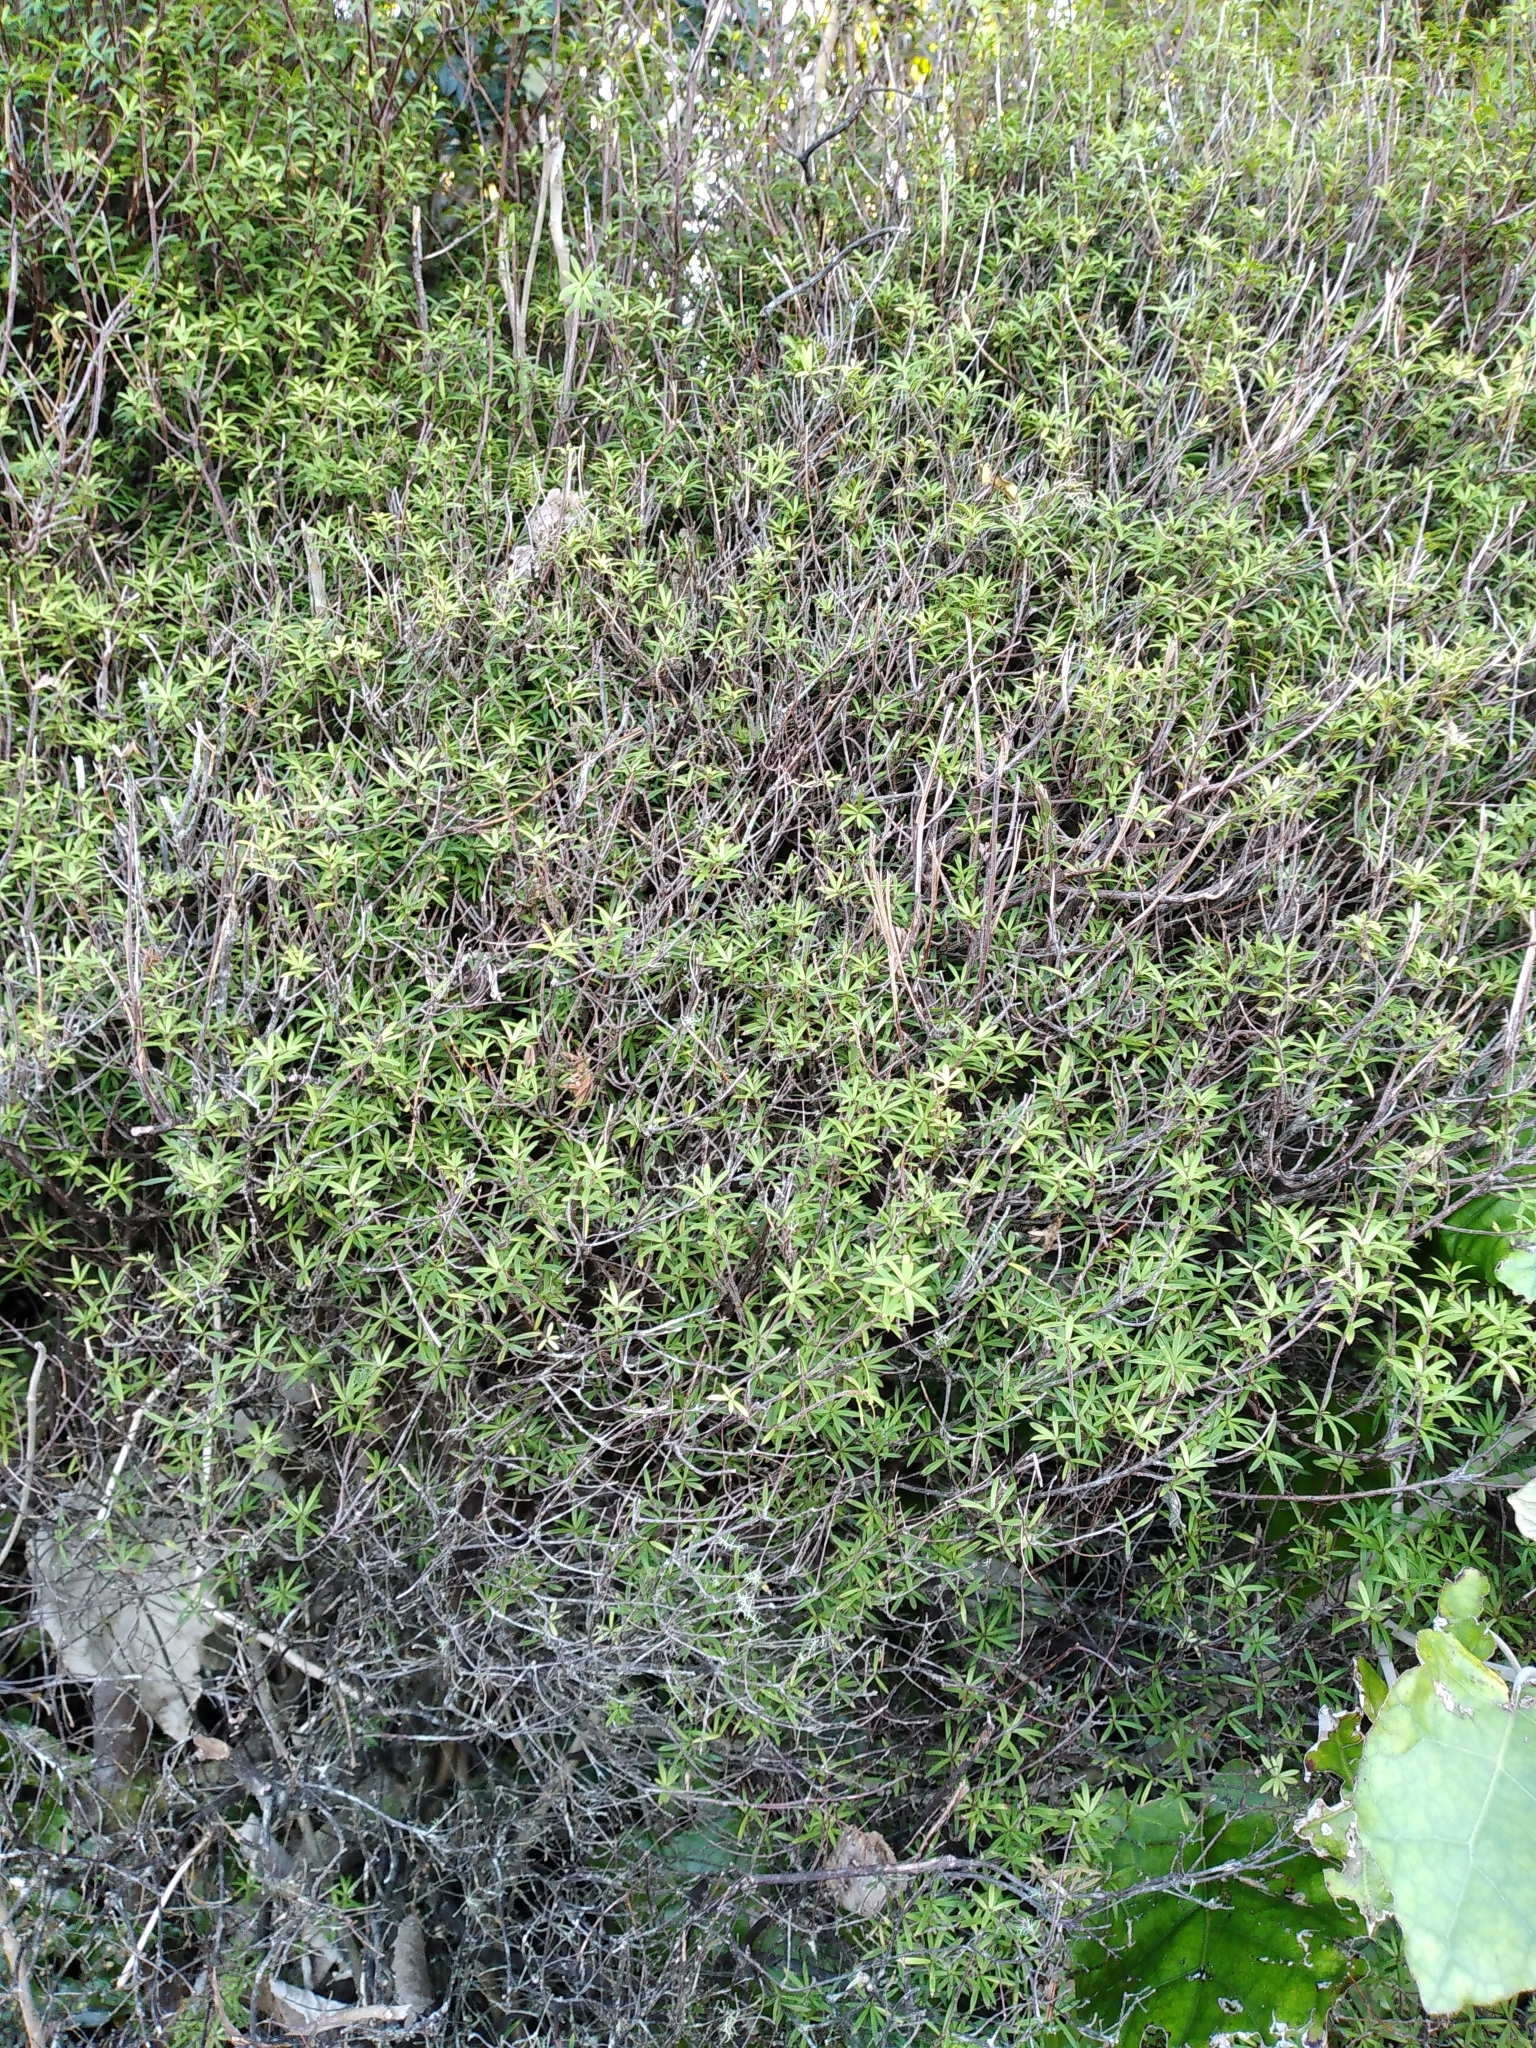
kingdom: Plantae
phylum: Tracheophyta
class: Magnoliopsida
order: Ericales
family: Ericaceae
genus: Leucopogon
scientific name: Leucopogon fasciculatus
